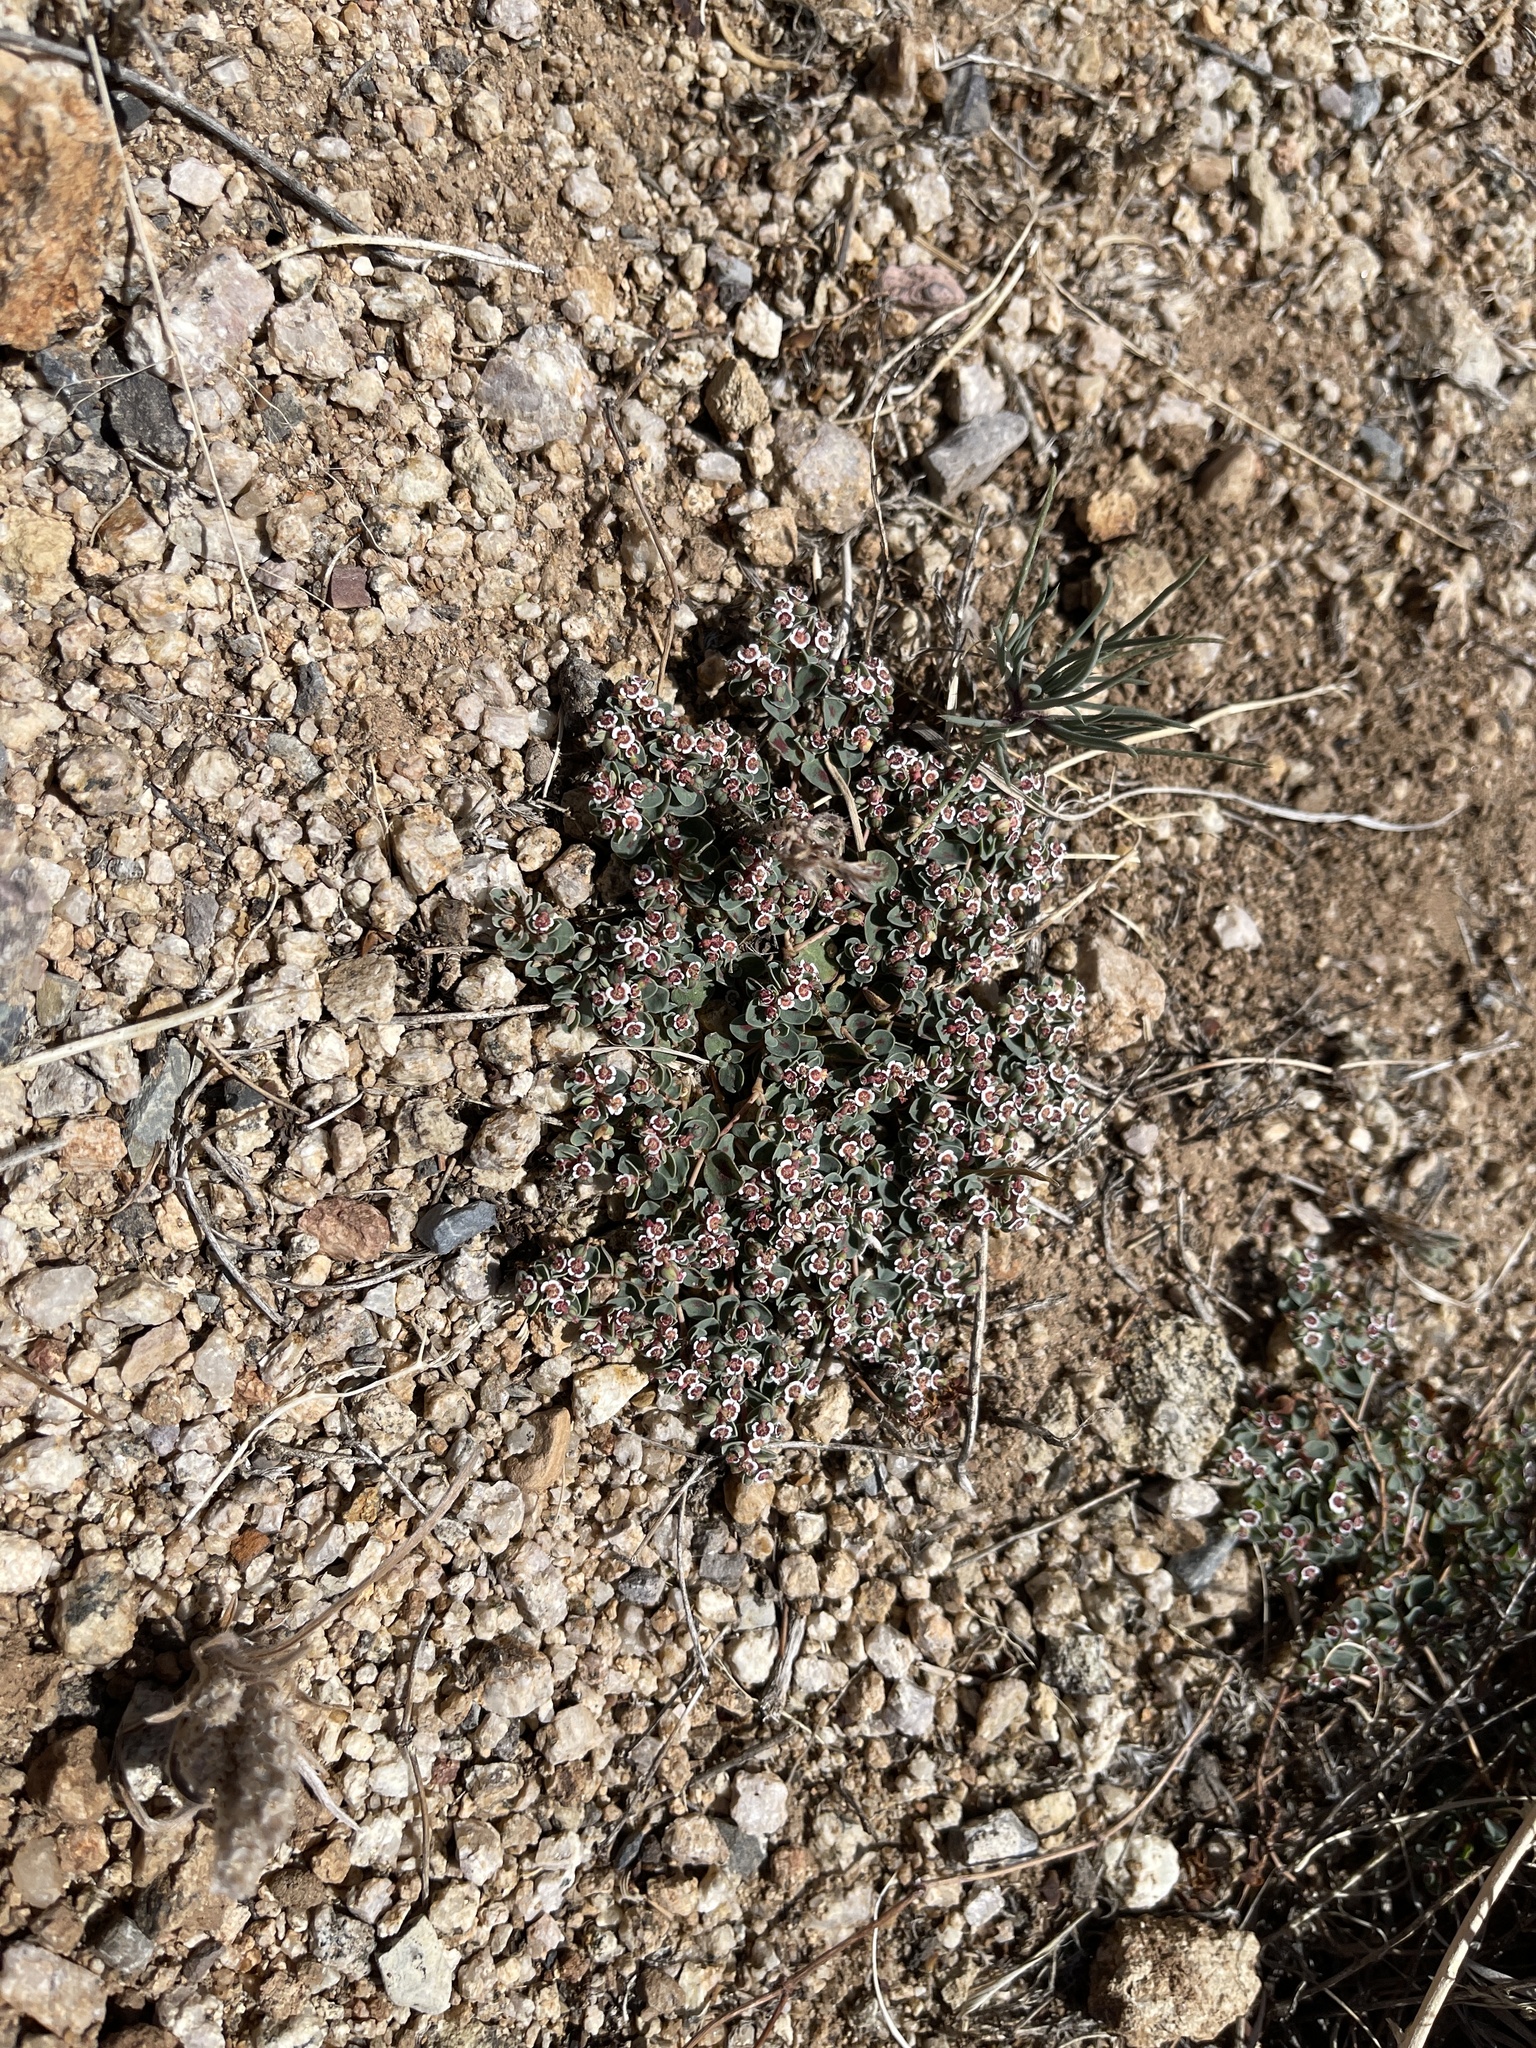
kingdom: Plantae
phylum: Tracheophyta
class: Magnoliopsida
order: Malpighiales
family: Euphorbiaceae
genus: Euphorbia
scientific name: Euphorbia albomarginata
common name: Whitemargin sandmat
